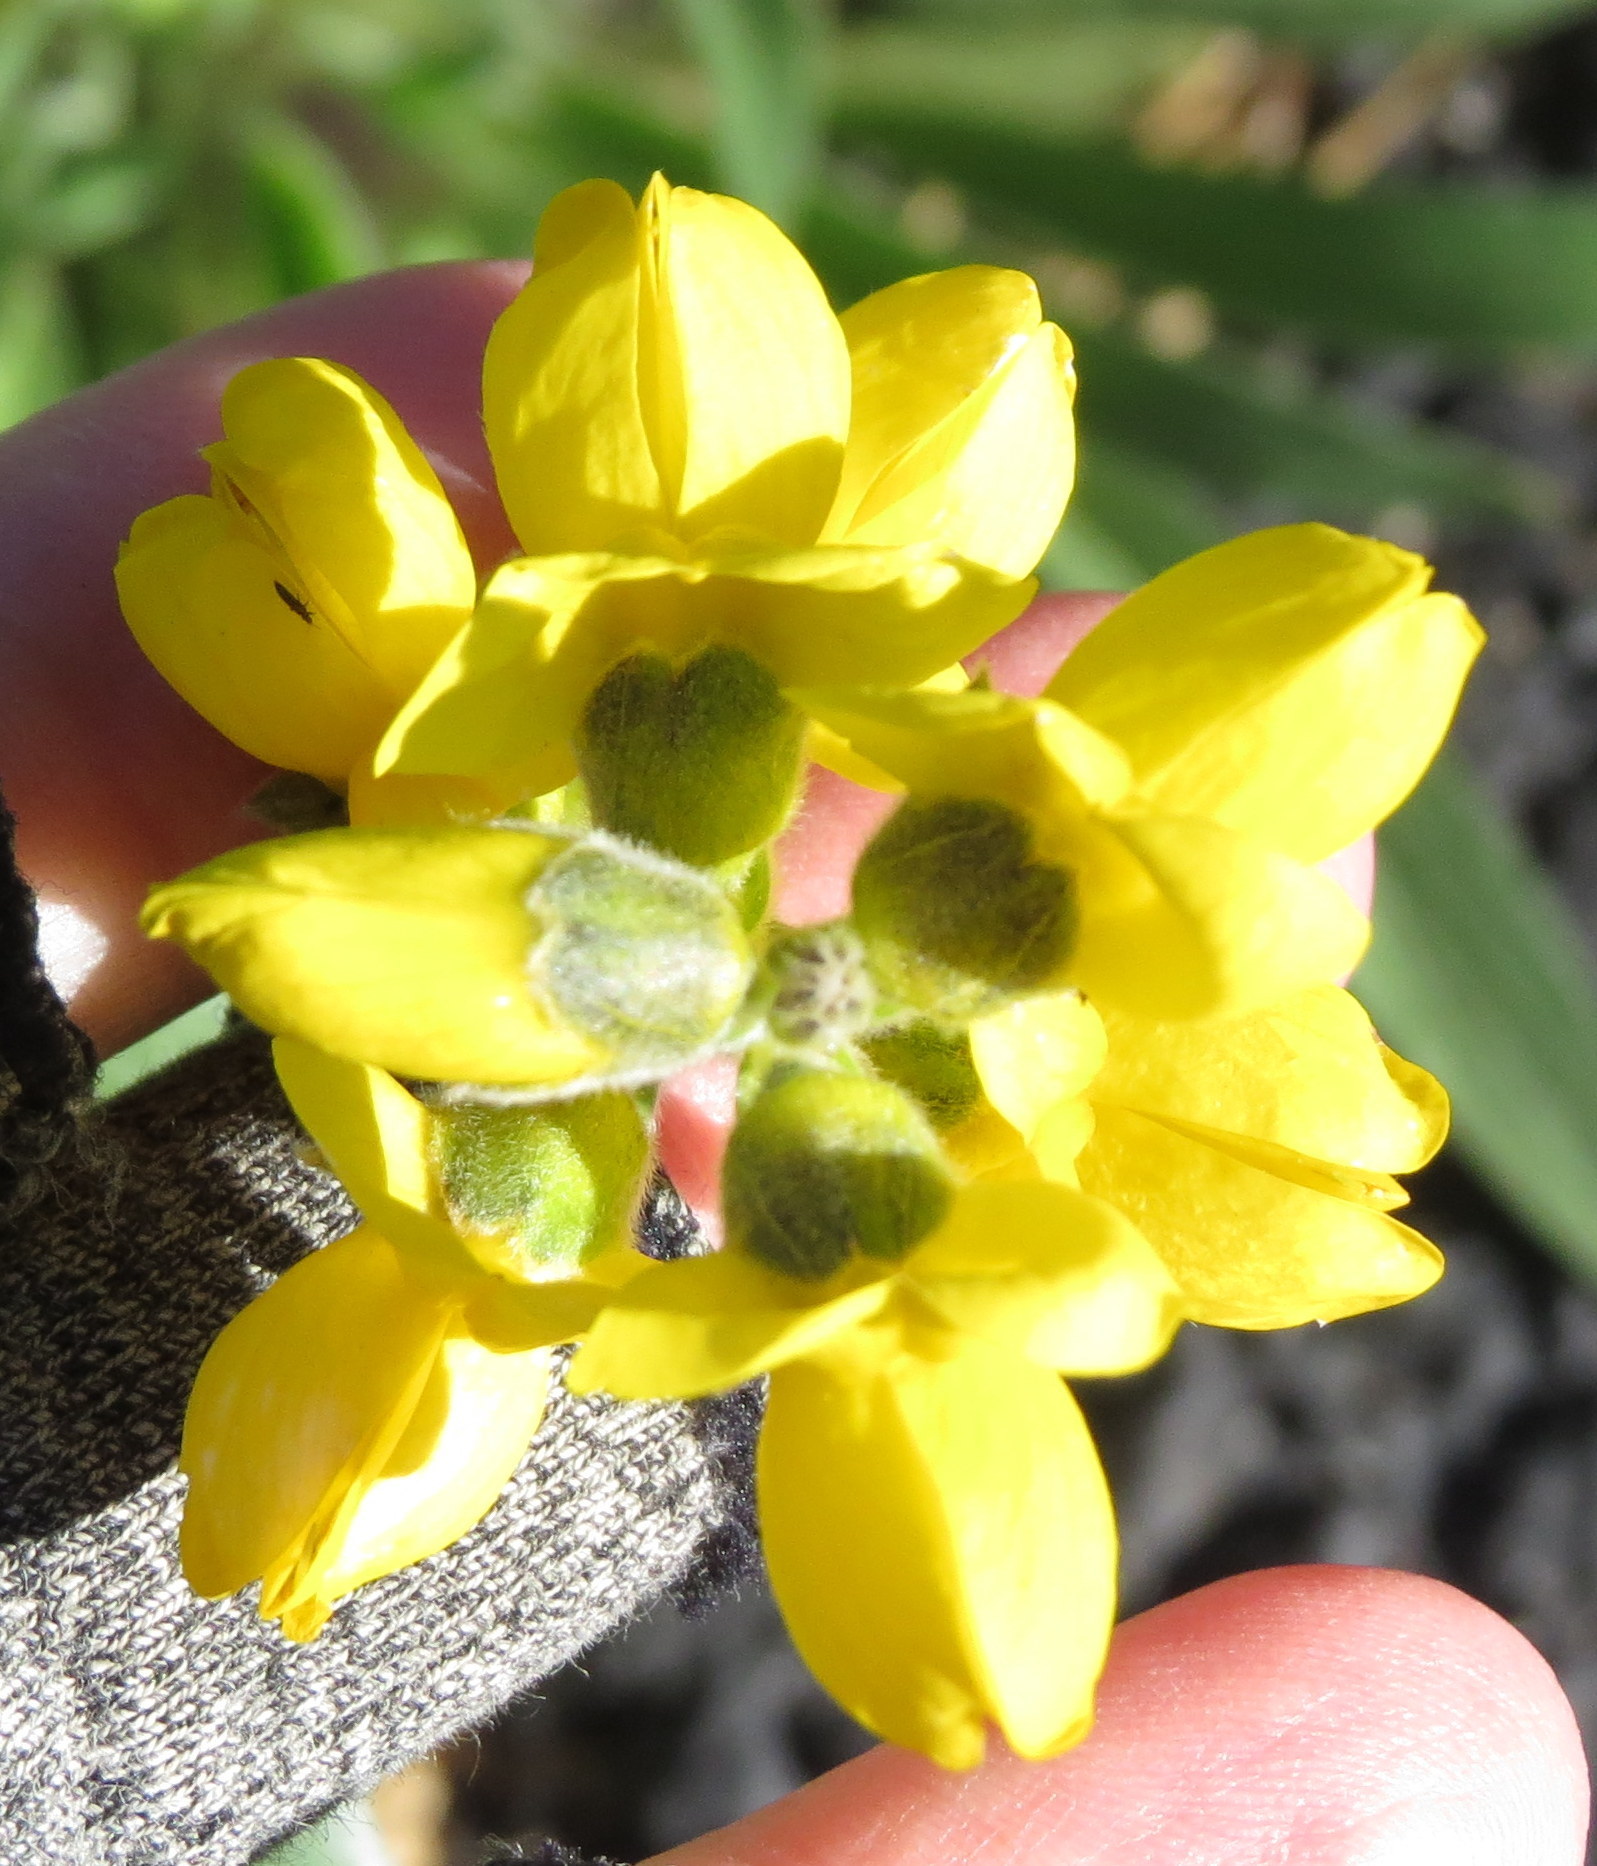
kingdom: Plantae
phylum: Tracheophyta
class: Magnoliopsida
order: Fabales
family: Fabaceae
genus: Thermopsis
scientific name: Thermopsis californica
